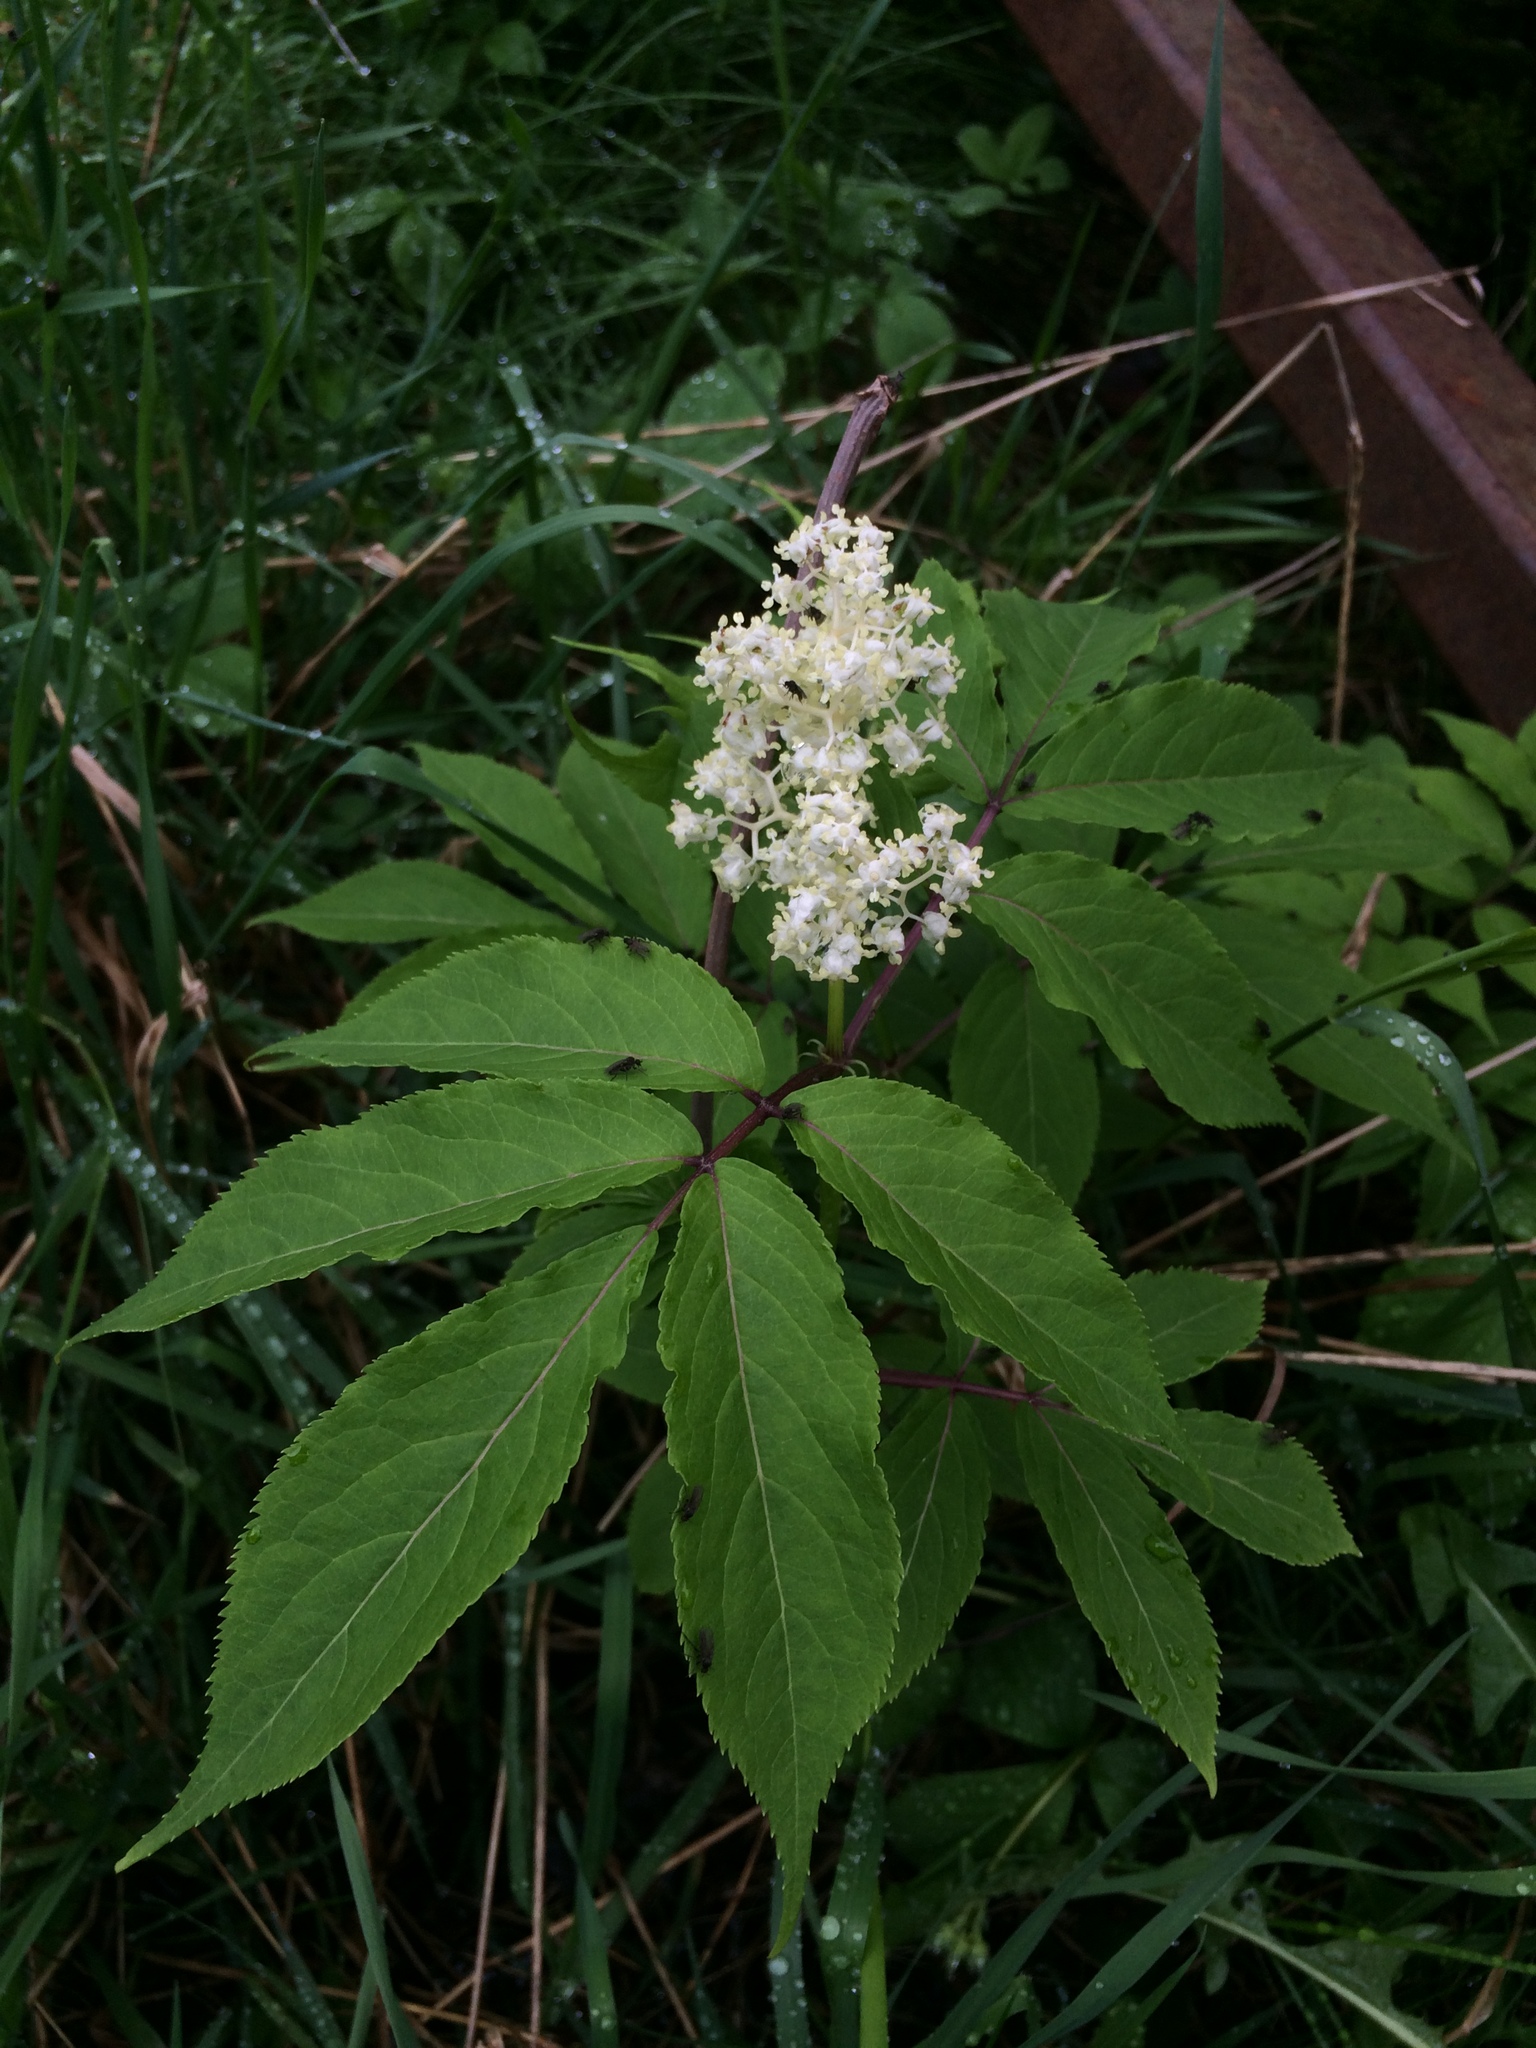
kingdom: Plantae
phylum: Tracheophyta
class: Magnoliopsida
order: Dipsacales
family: Viburnaceae
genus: Sambucus
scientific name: Sambucus racemosa
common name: Red-berried elder
